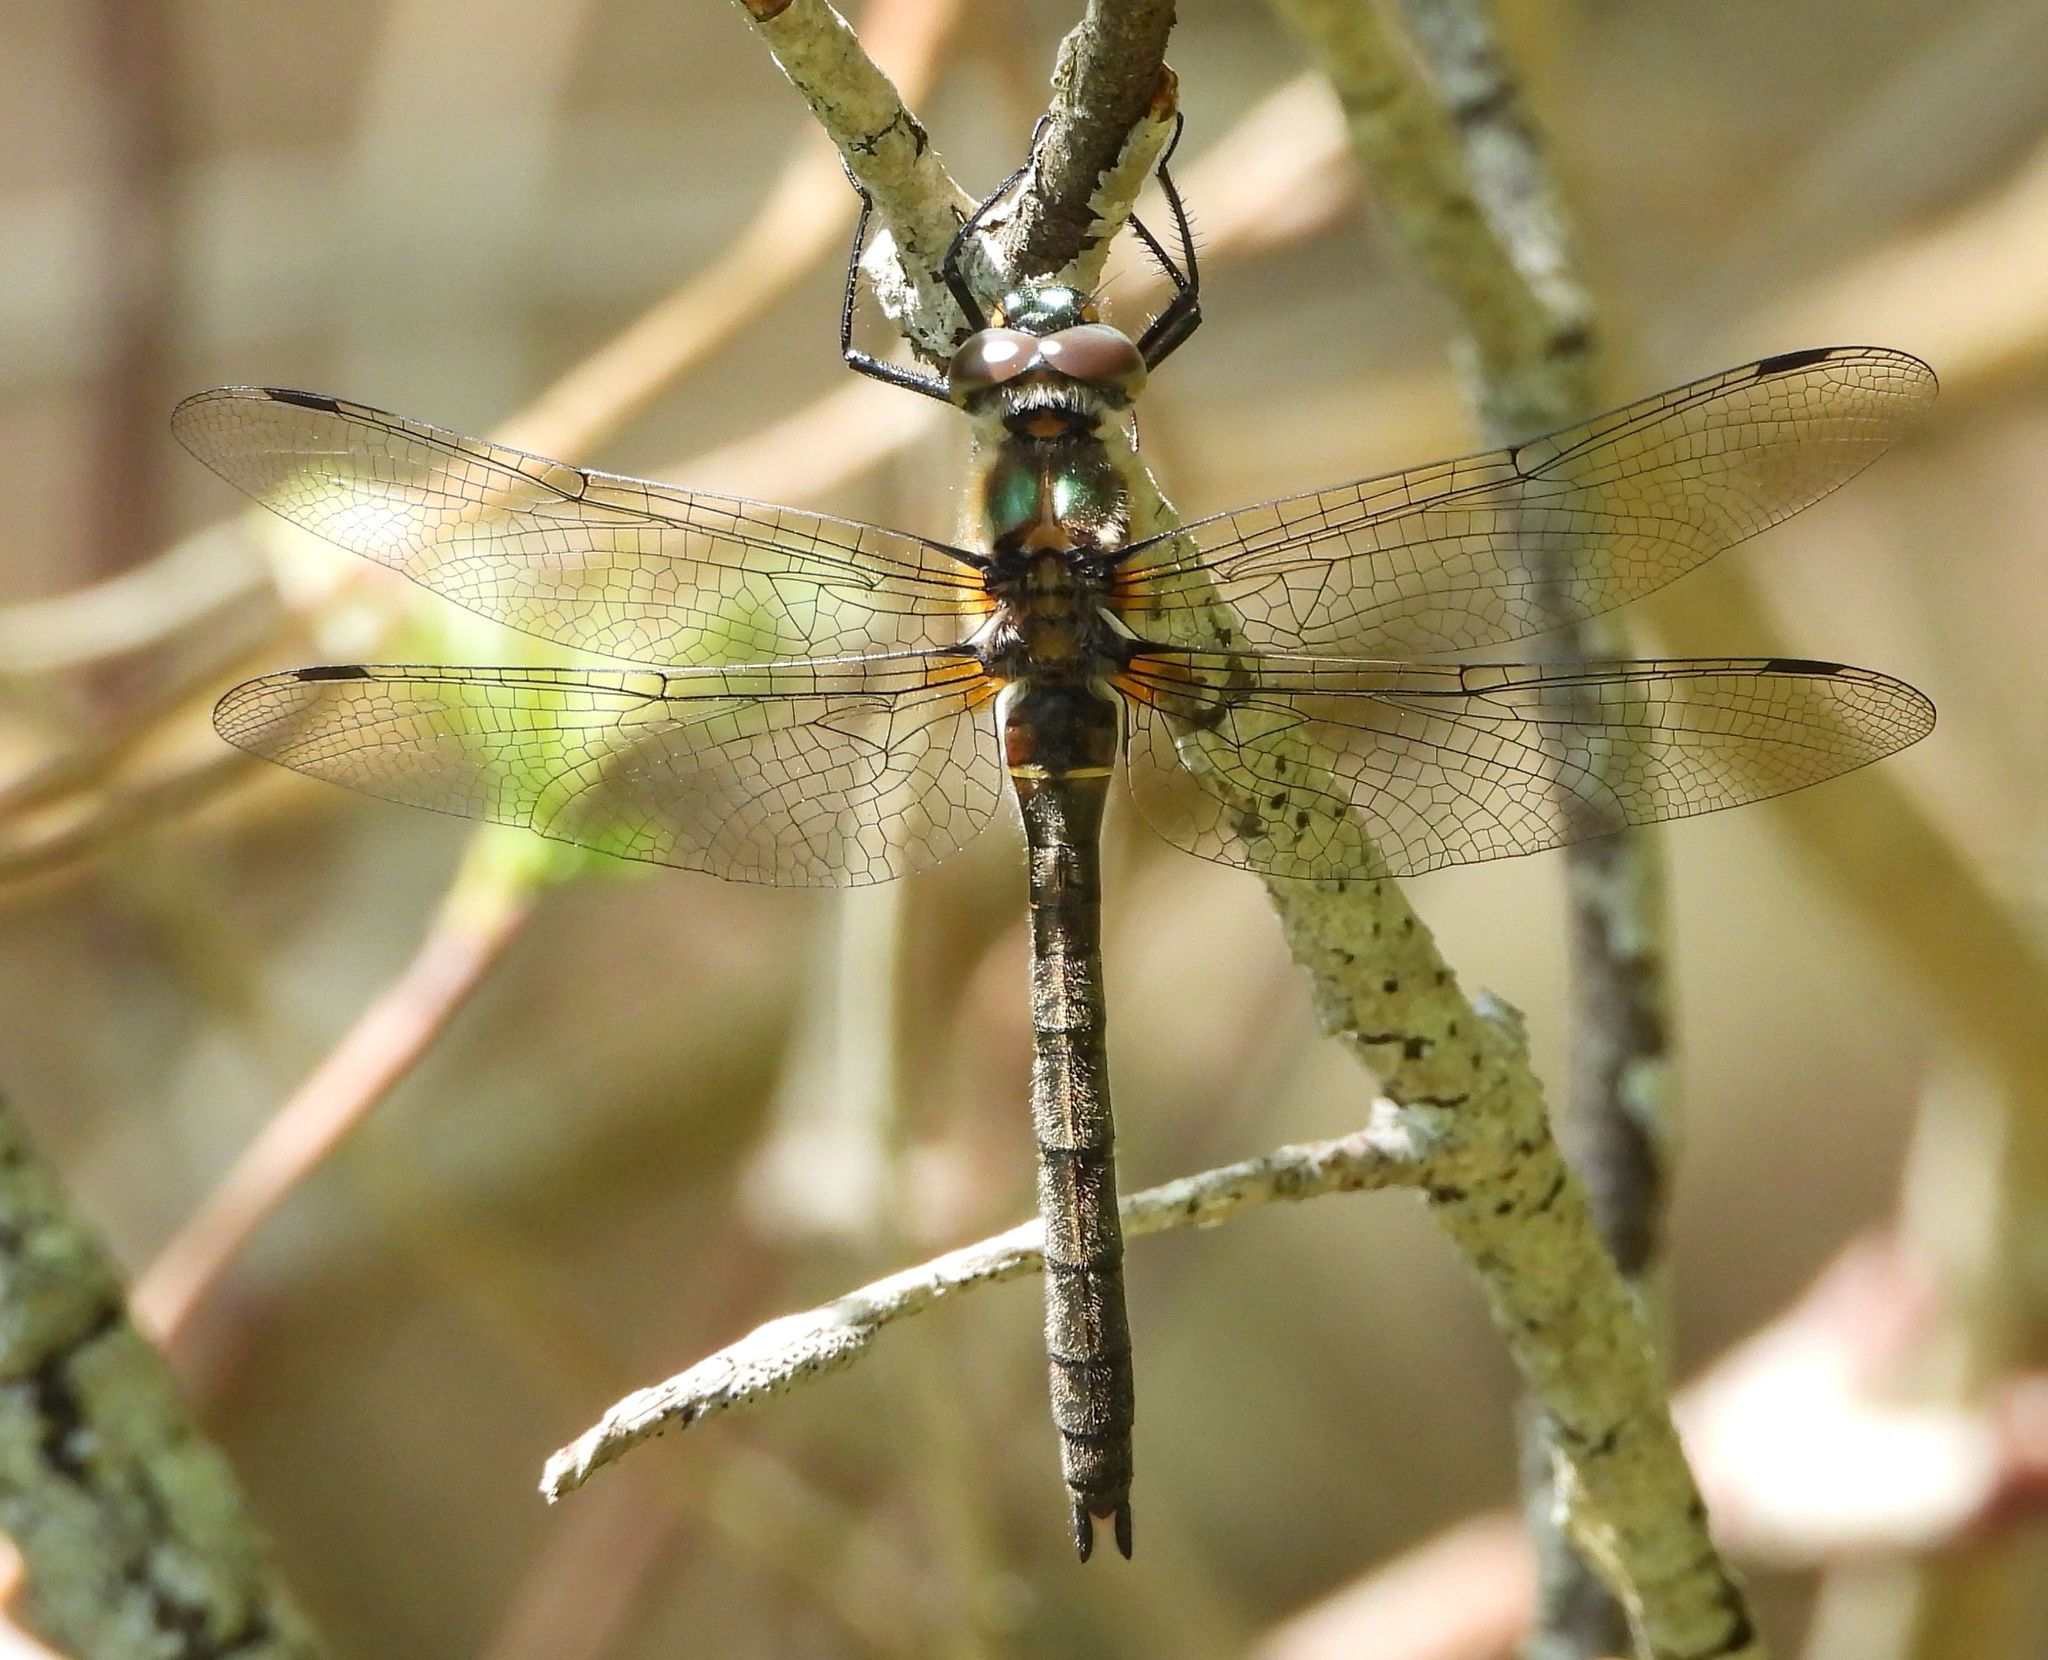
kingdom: Animalia
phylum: Arthropoda
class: Insecta
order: Odonata
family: Corduliidae
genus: Cordulia
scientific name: Cordulia shurtleffii
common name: American emerald
